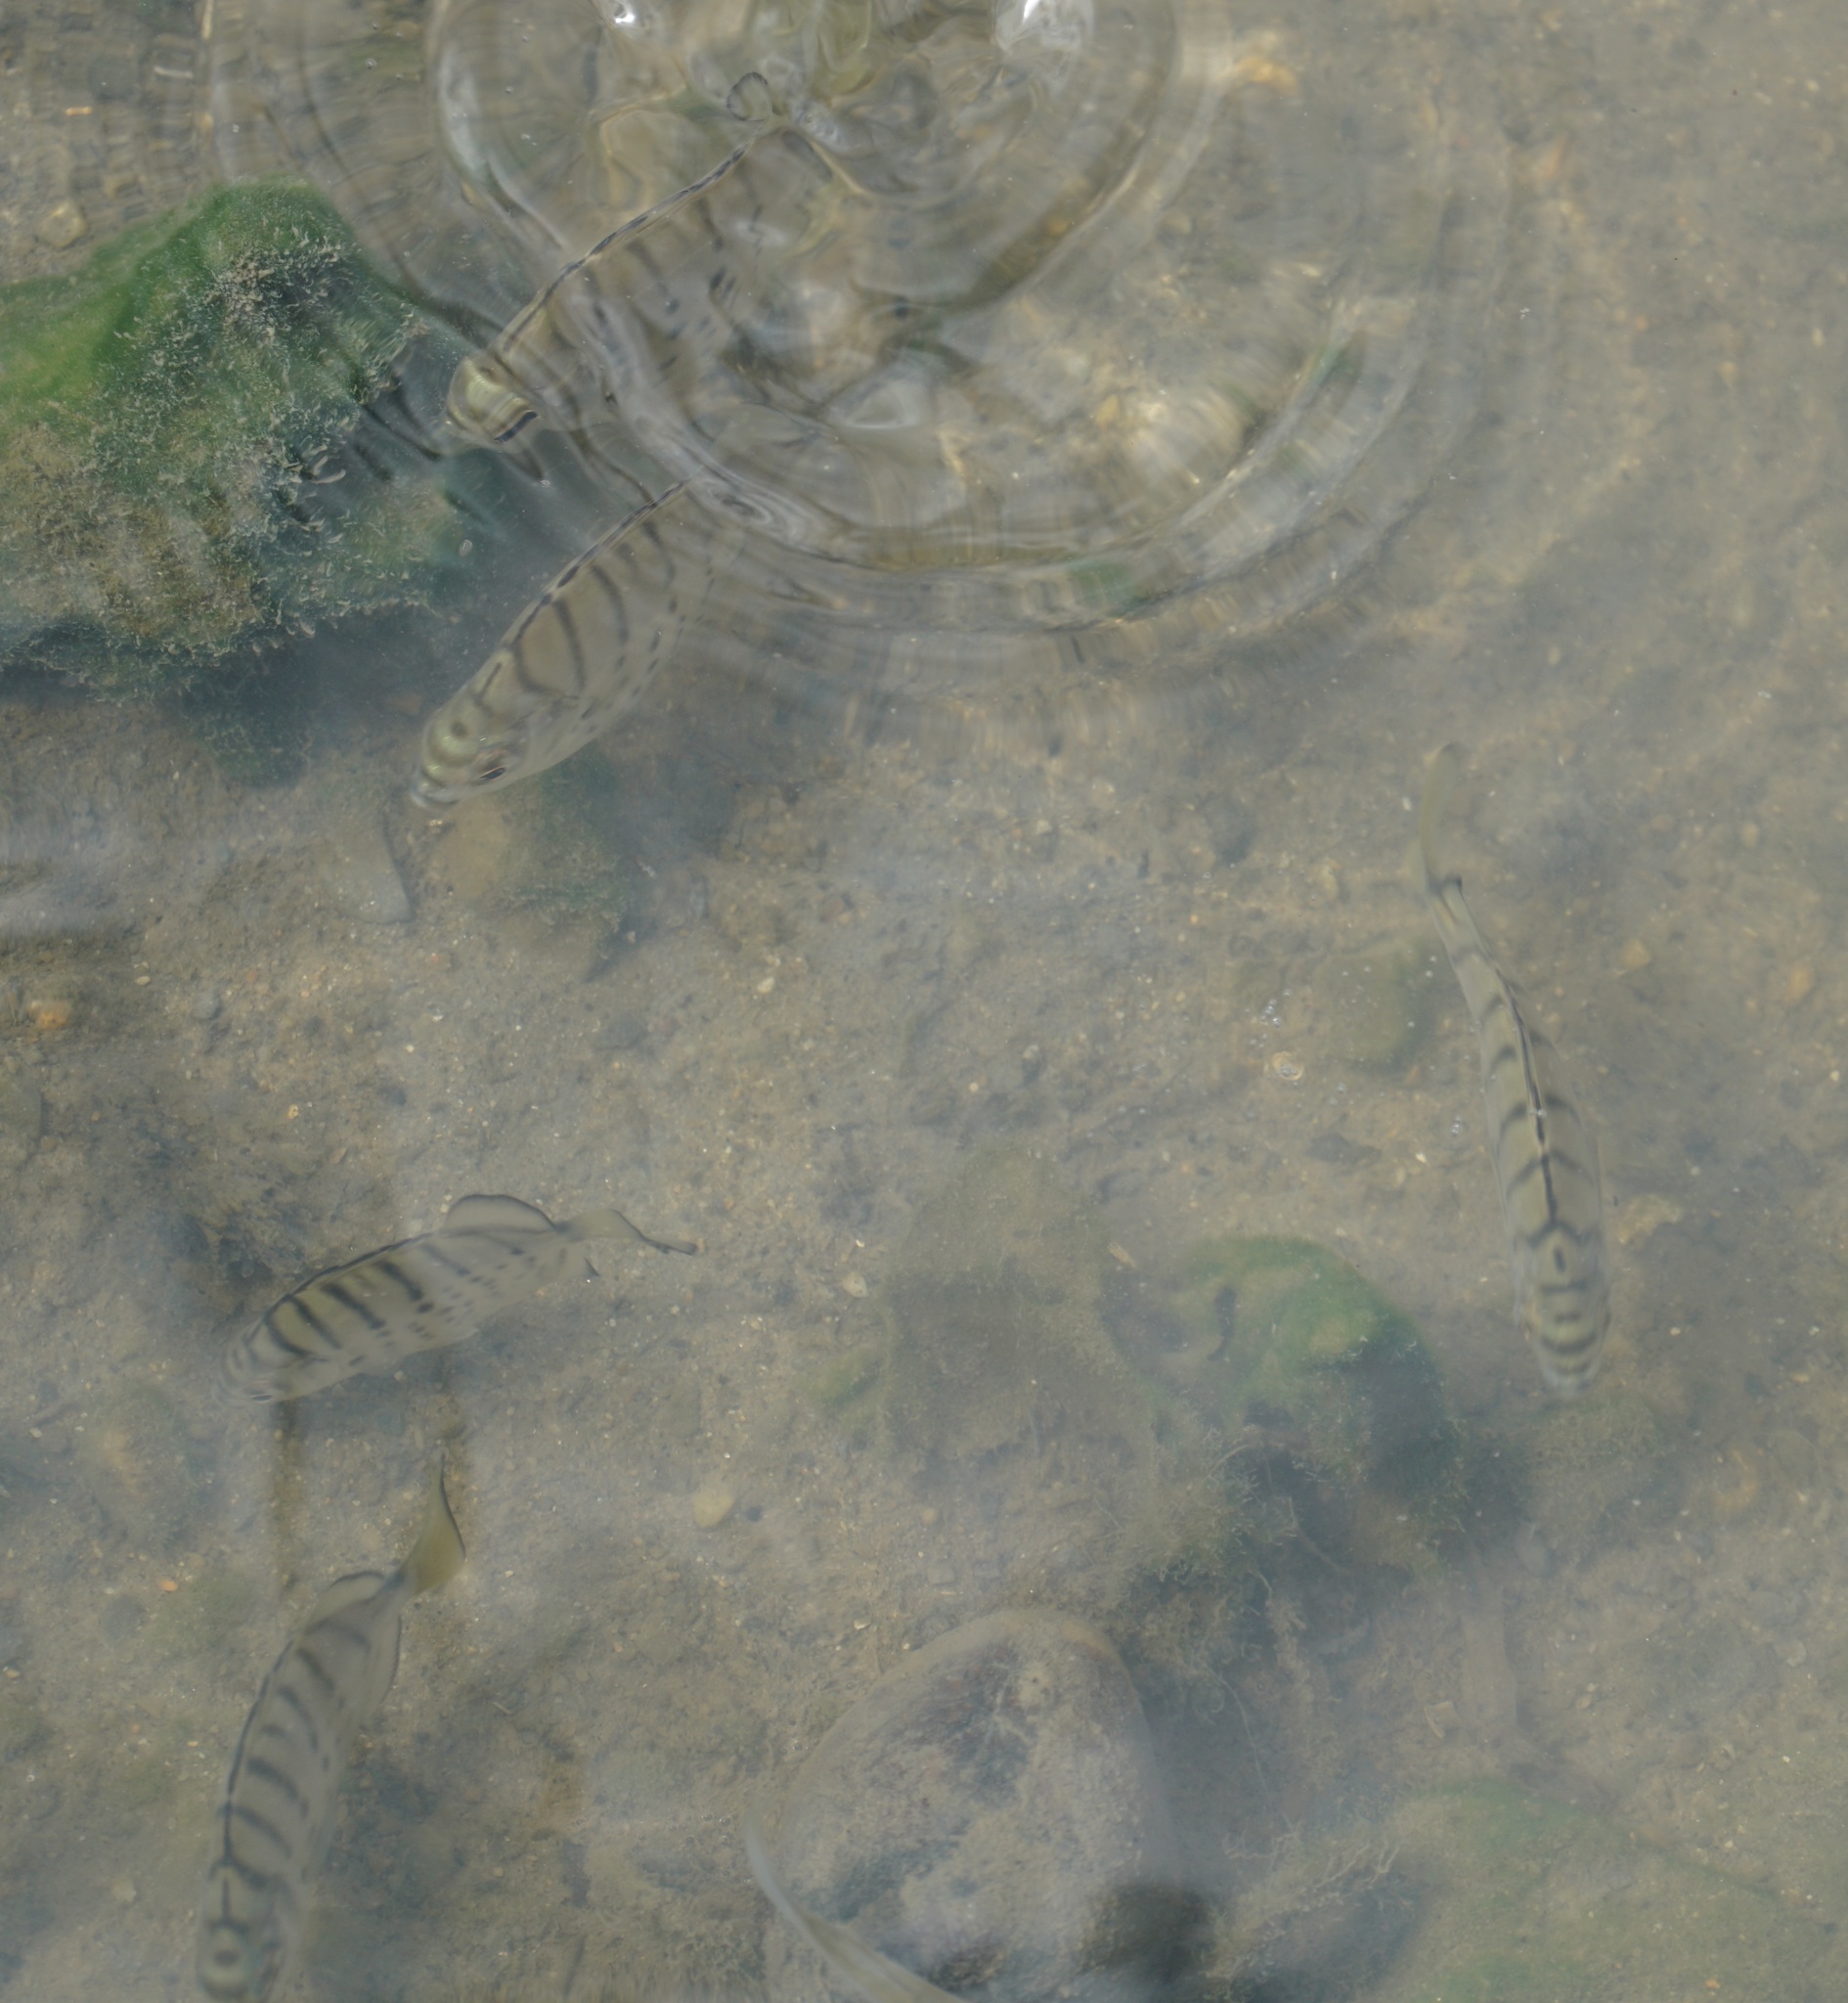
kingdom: Animalia
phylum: Chordata
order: Perciformes
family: Scatophagidae
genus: Selenotoca
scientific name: Selenotoca multifasciata
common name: Striped scat
